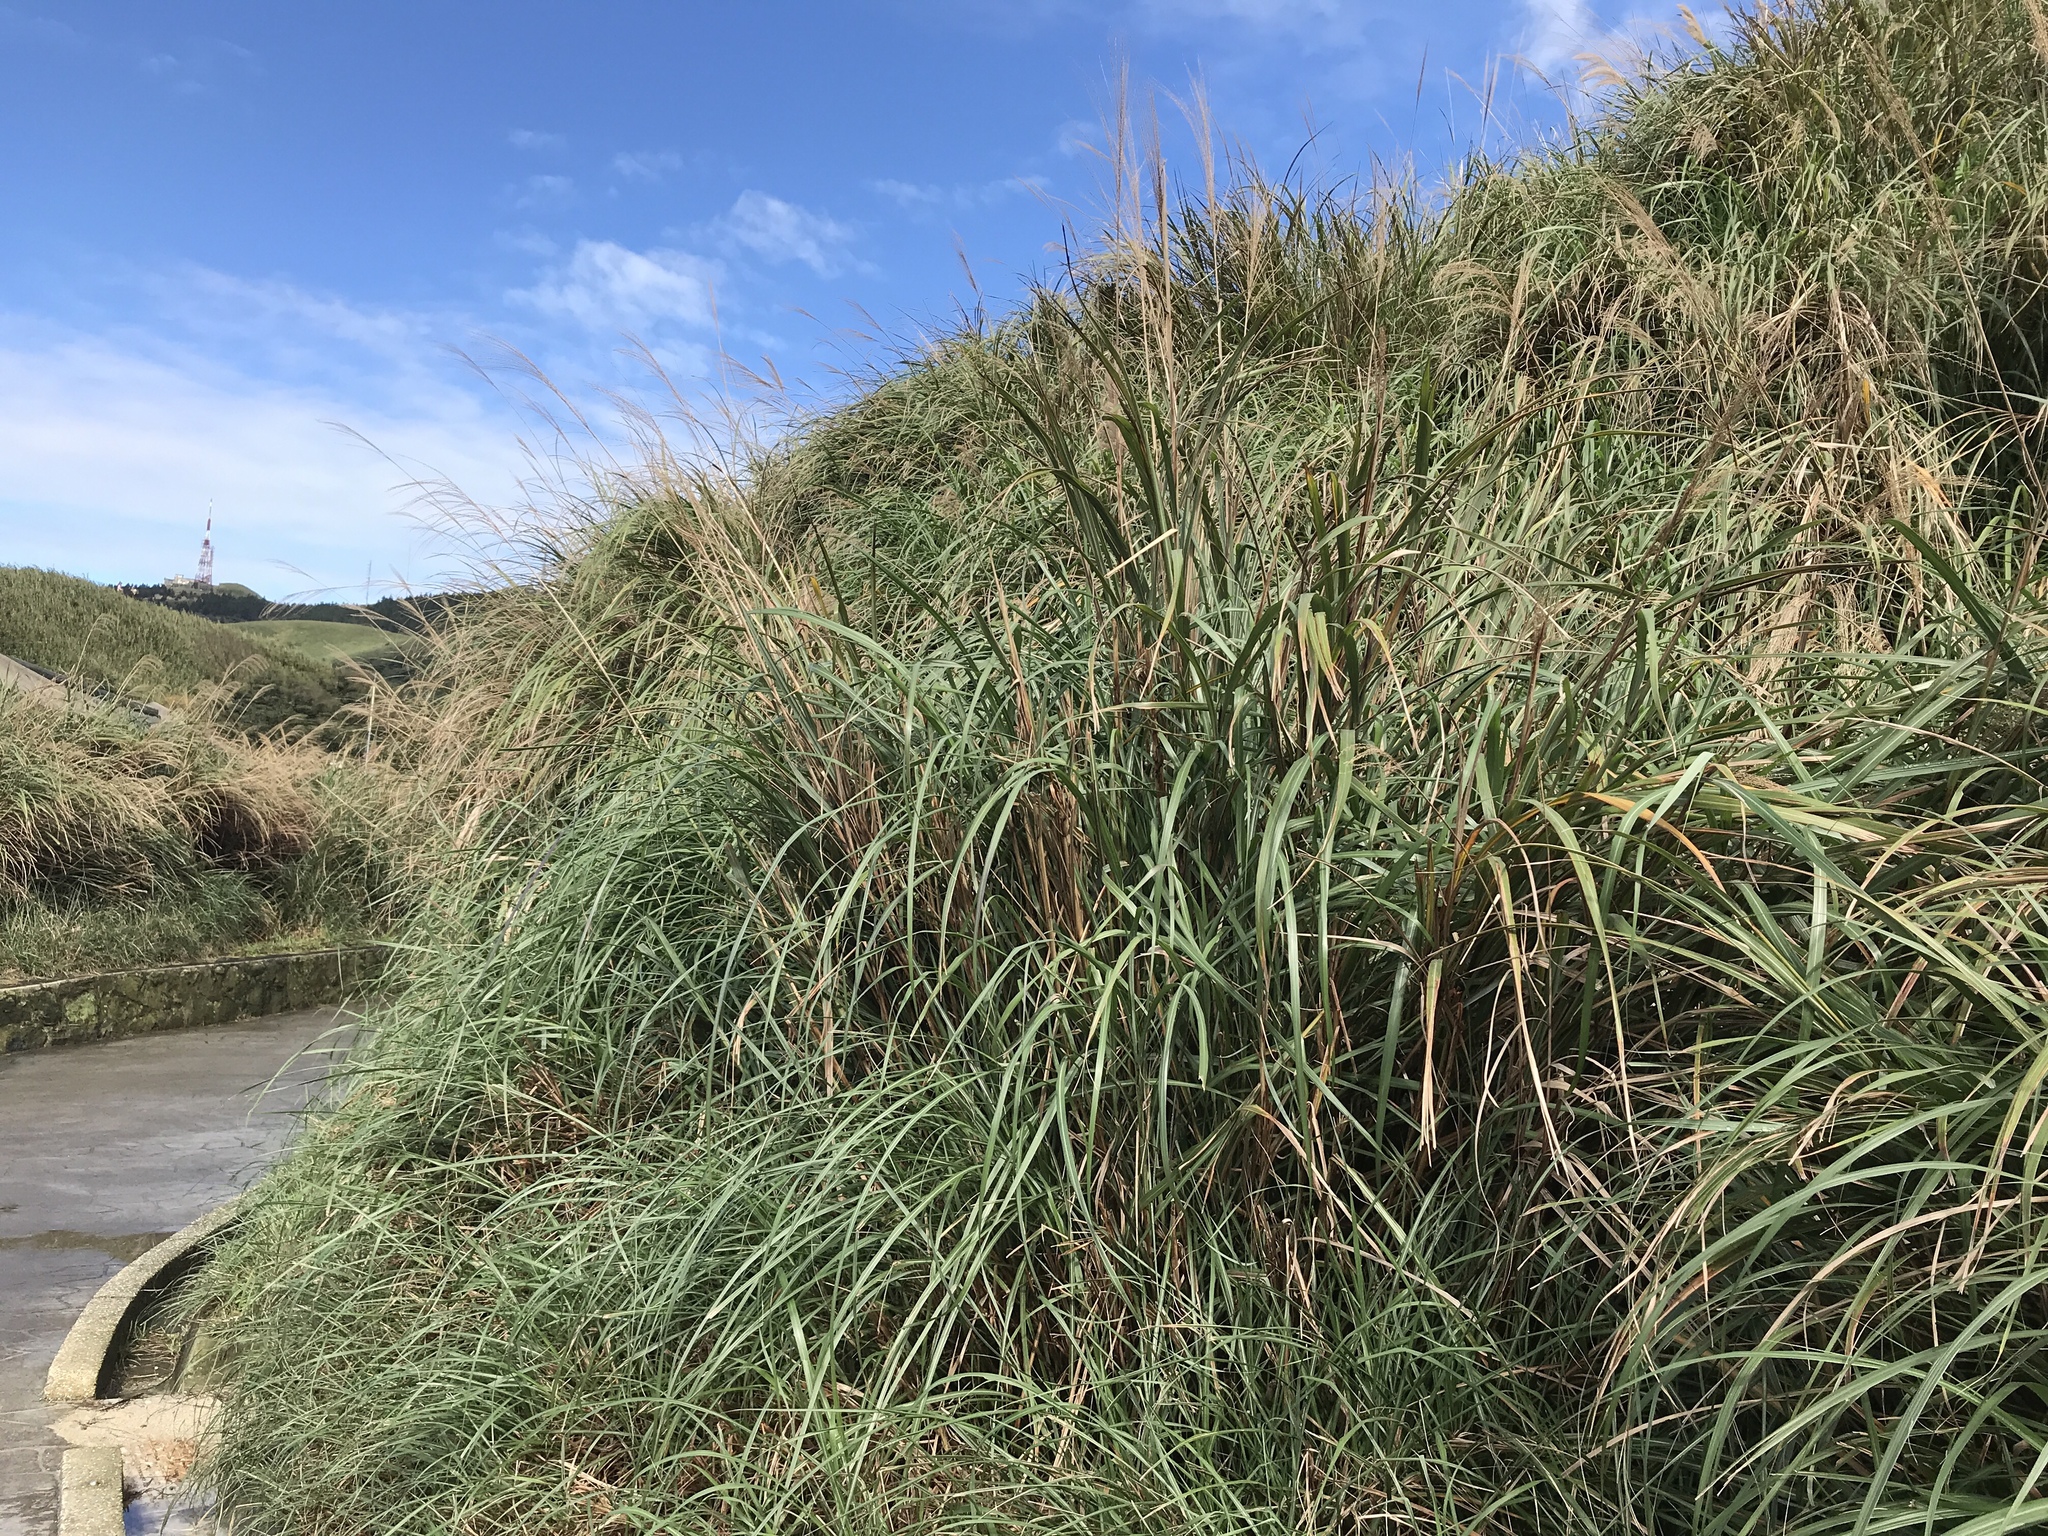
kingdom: Plantae
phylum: Tracheophyta
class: Liliopsida
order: Poales
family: Poaceae
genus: Miscanthus
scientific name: Miscanthus sinensis
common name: Chinese silvergrass
